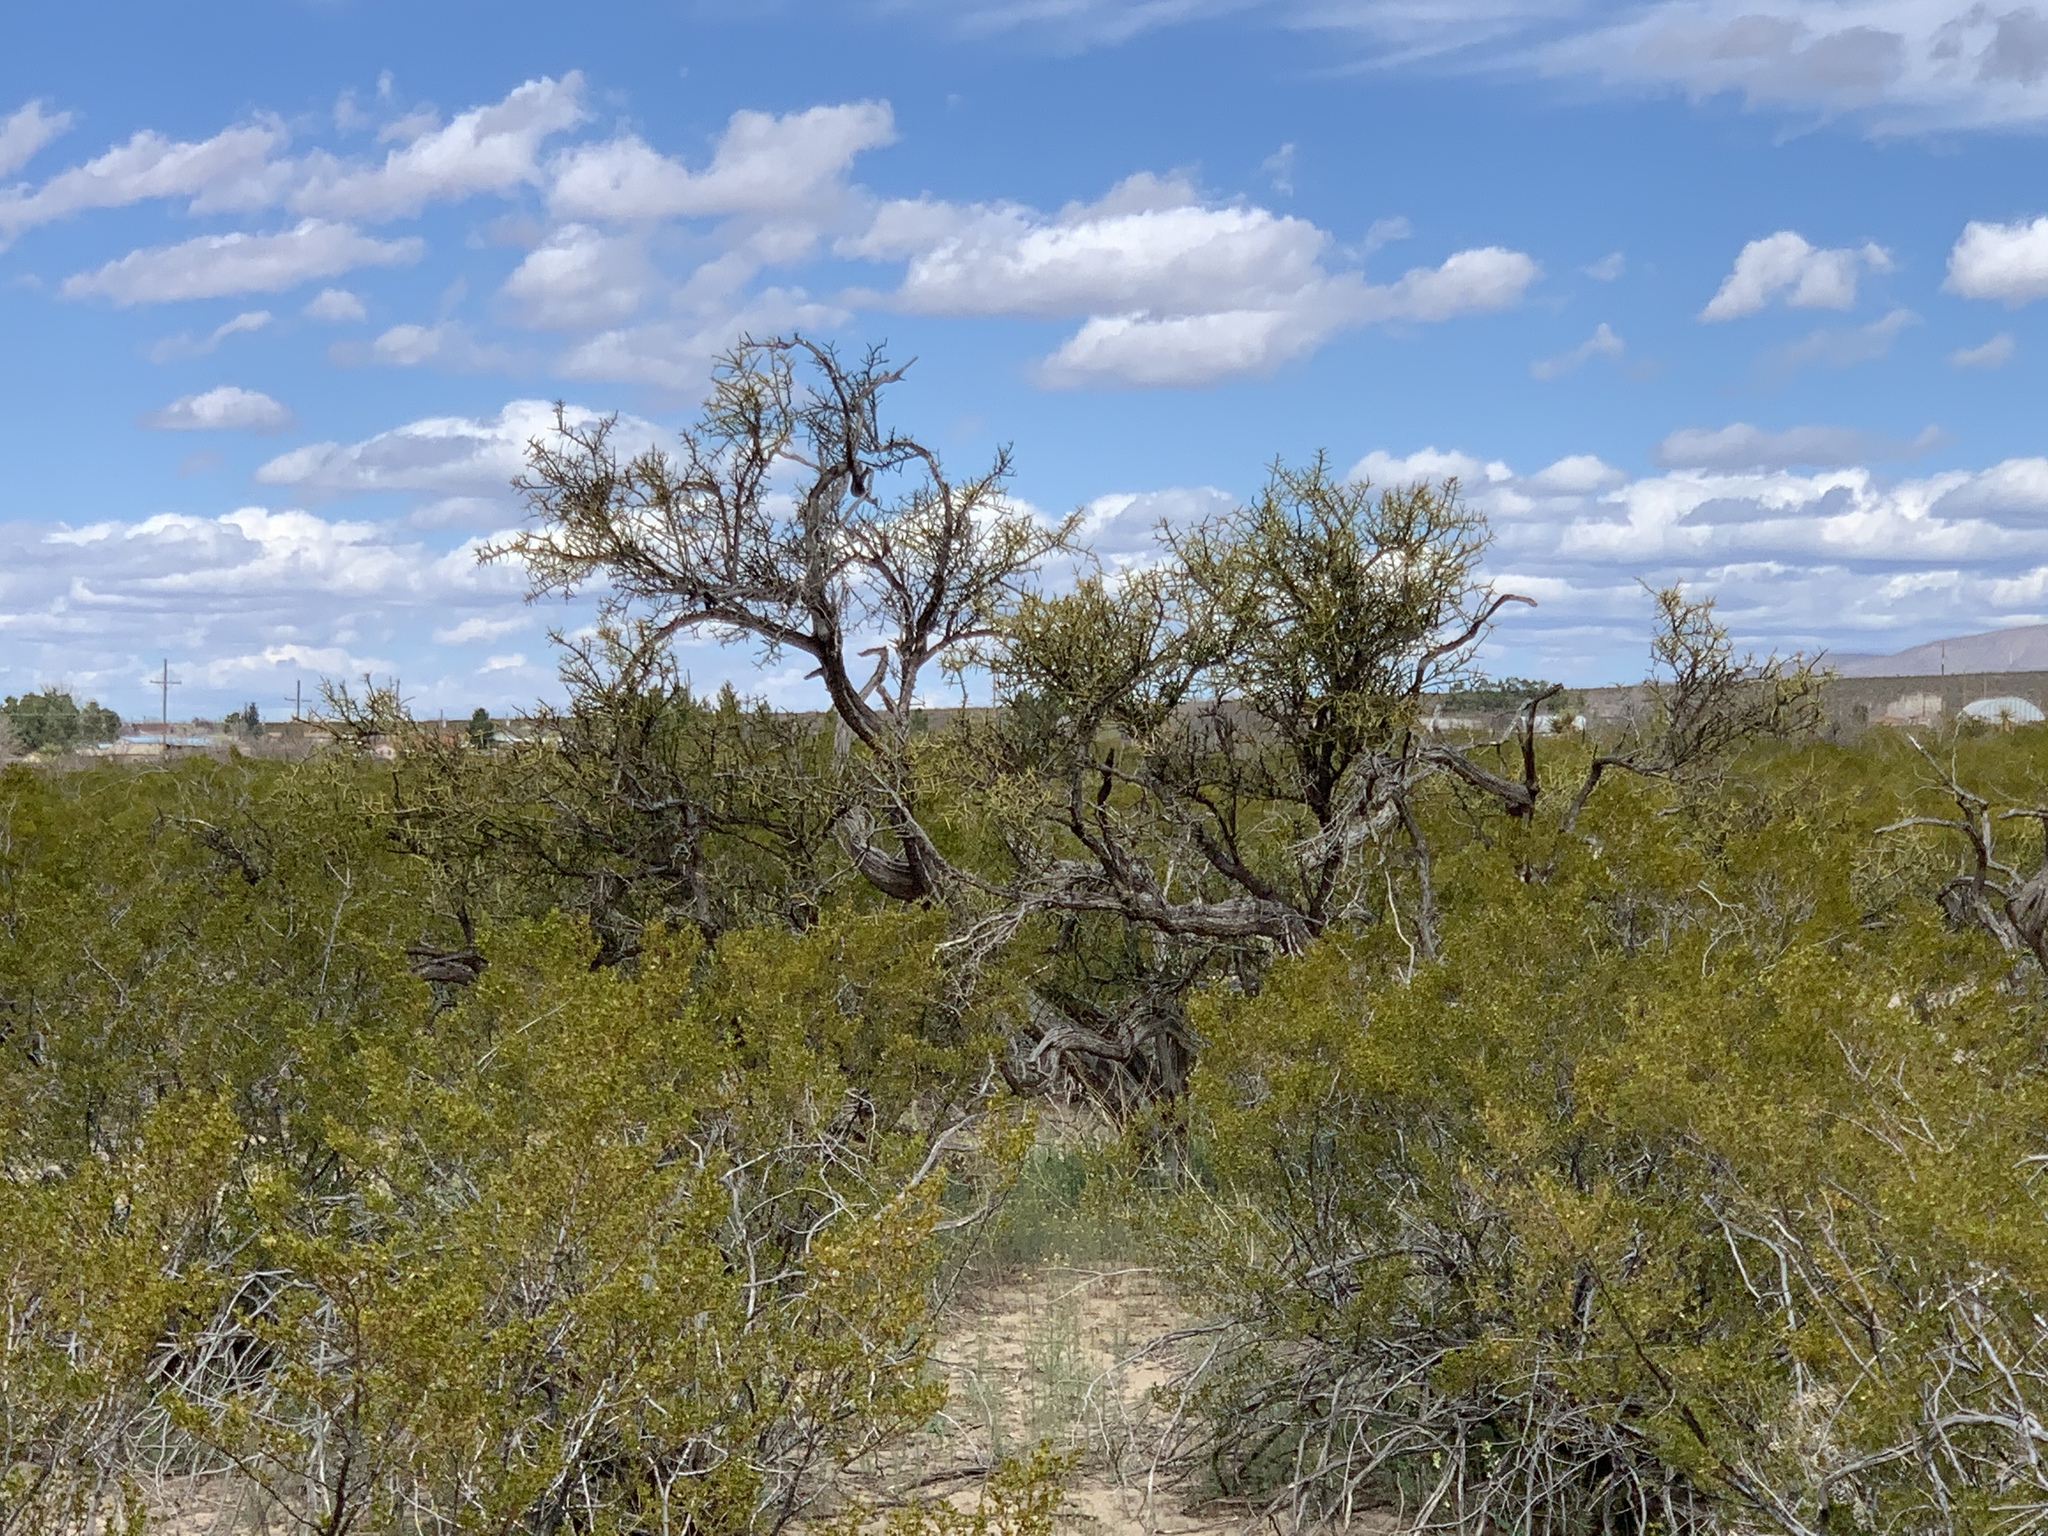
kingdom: Plantae
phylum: Tracheophyta
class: Magnoliopsida
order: Brassicales
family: Koeberliniaceae
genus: Koeberlinia
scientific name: Koeberlinia spinosa
